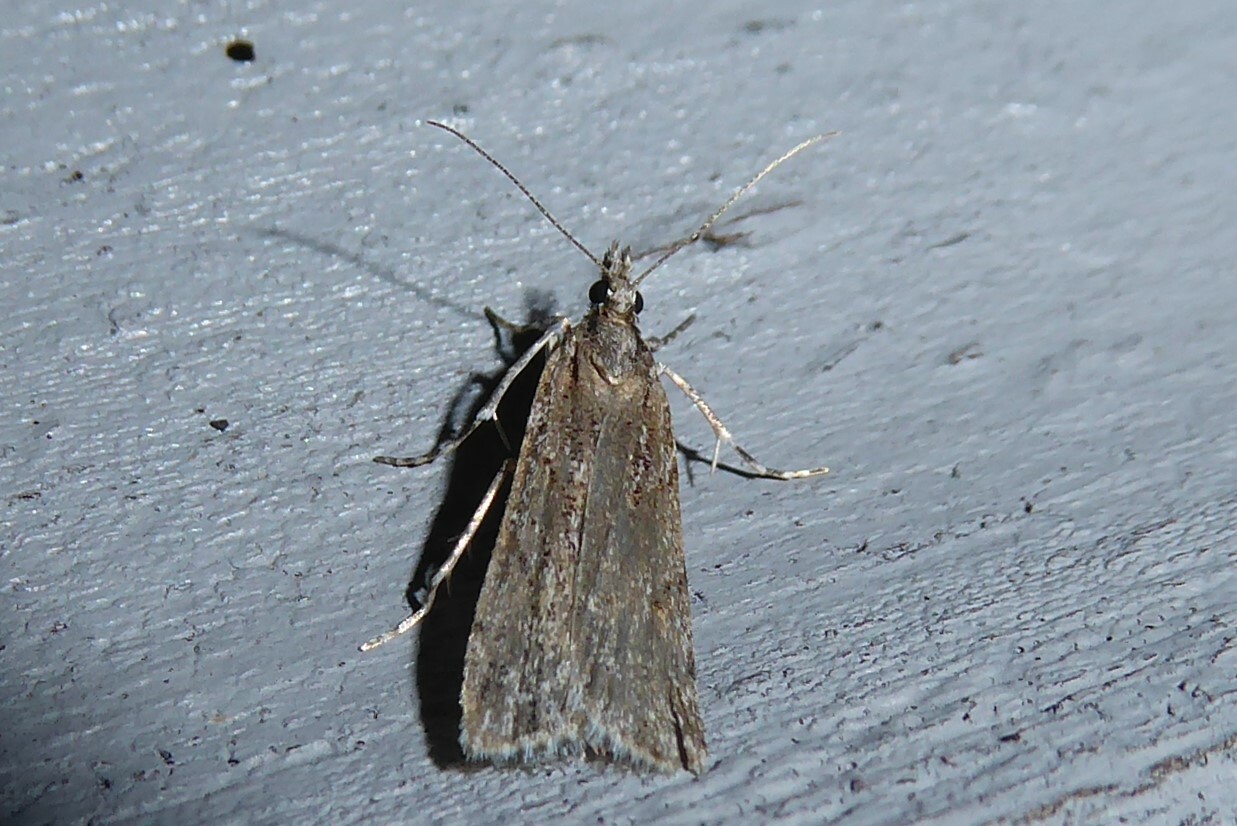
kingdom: Animalia
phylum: Arthropoda
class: Insecta
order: Lepidoptera
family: Crambidae
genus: Scoparia
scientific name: Scoparia chalicodes
